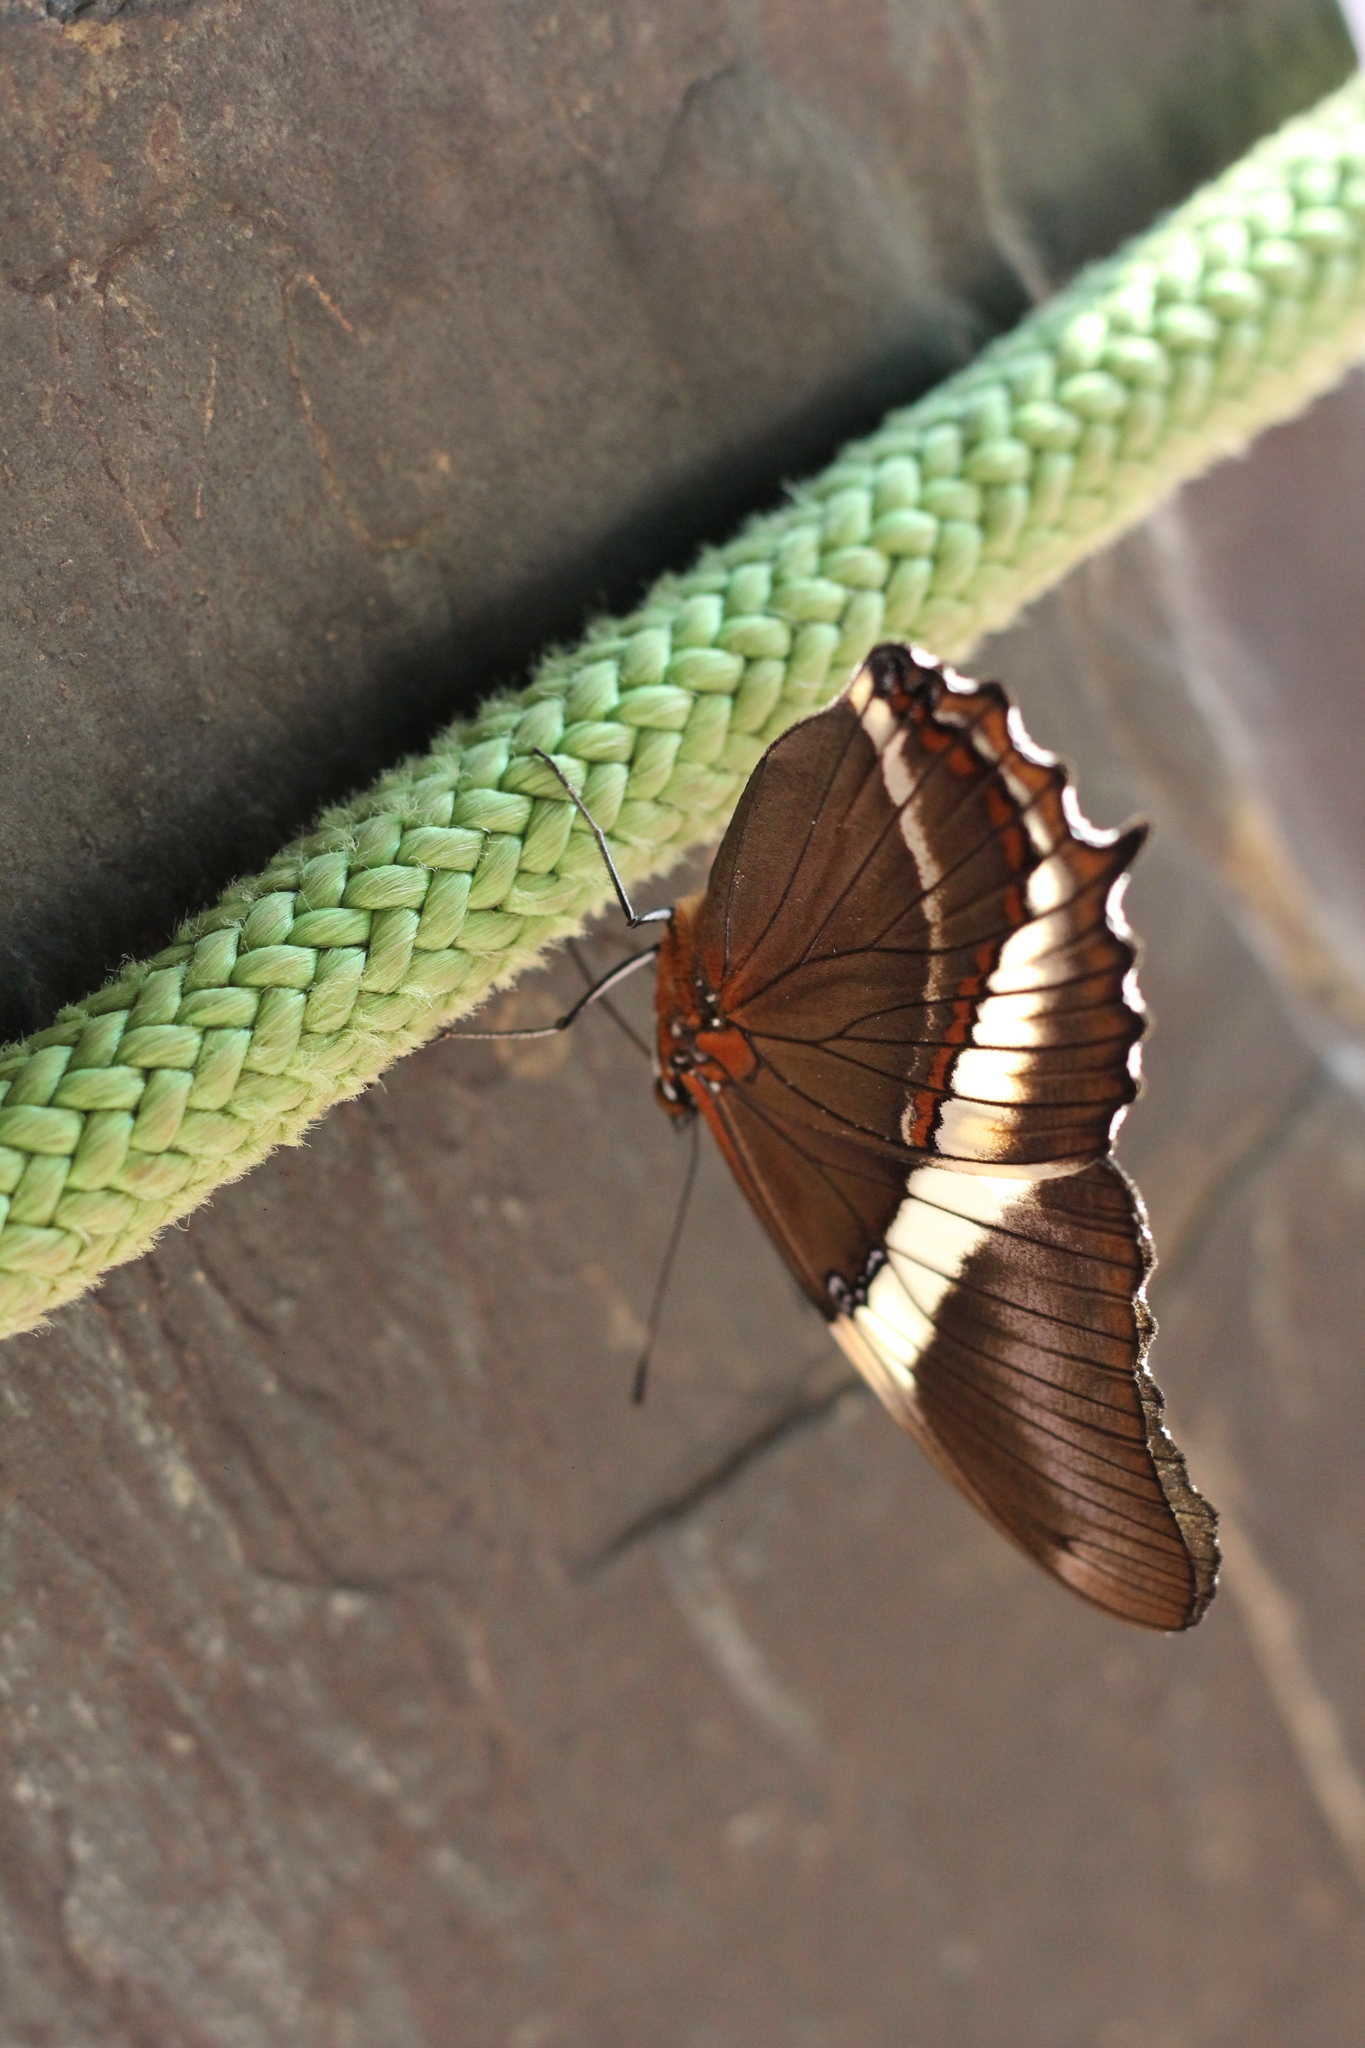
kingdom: Animalia
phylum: Arthropoda
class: Insecta
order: Lepidoptera
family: Nymphalidae
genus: Siproeta
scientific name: Siproeta epaphus
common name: Rusty-tipped page
